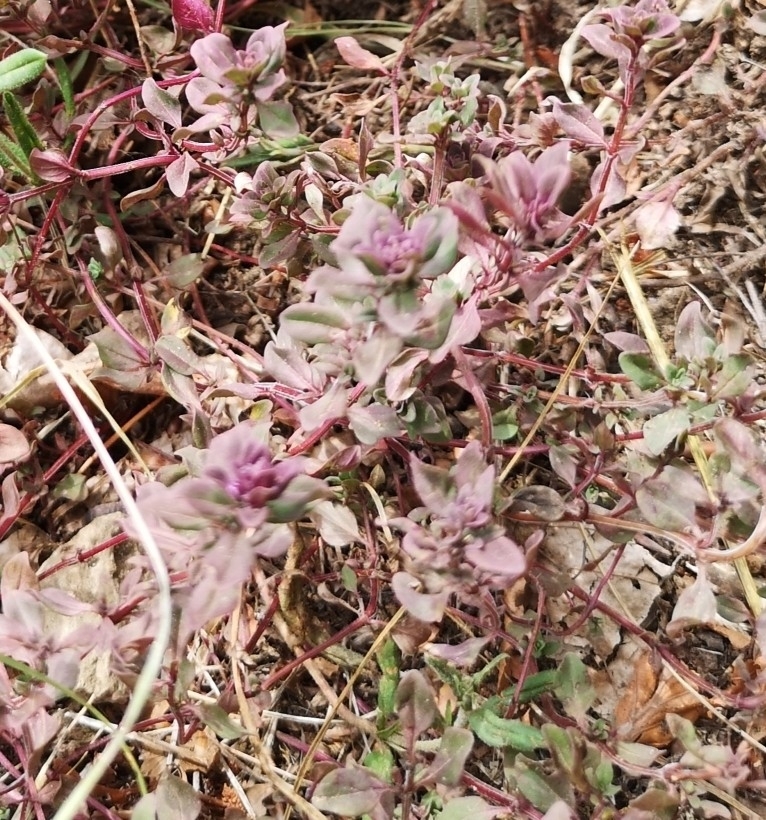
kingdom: Plantae
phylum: Tracheophyta
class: Magnoliopsida
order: Lamiales
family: Lamiaceae
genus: Thymus
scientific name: Thymus pulegioides
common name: Large thyme
